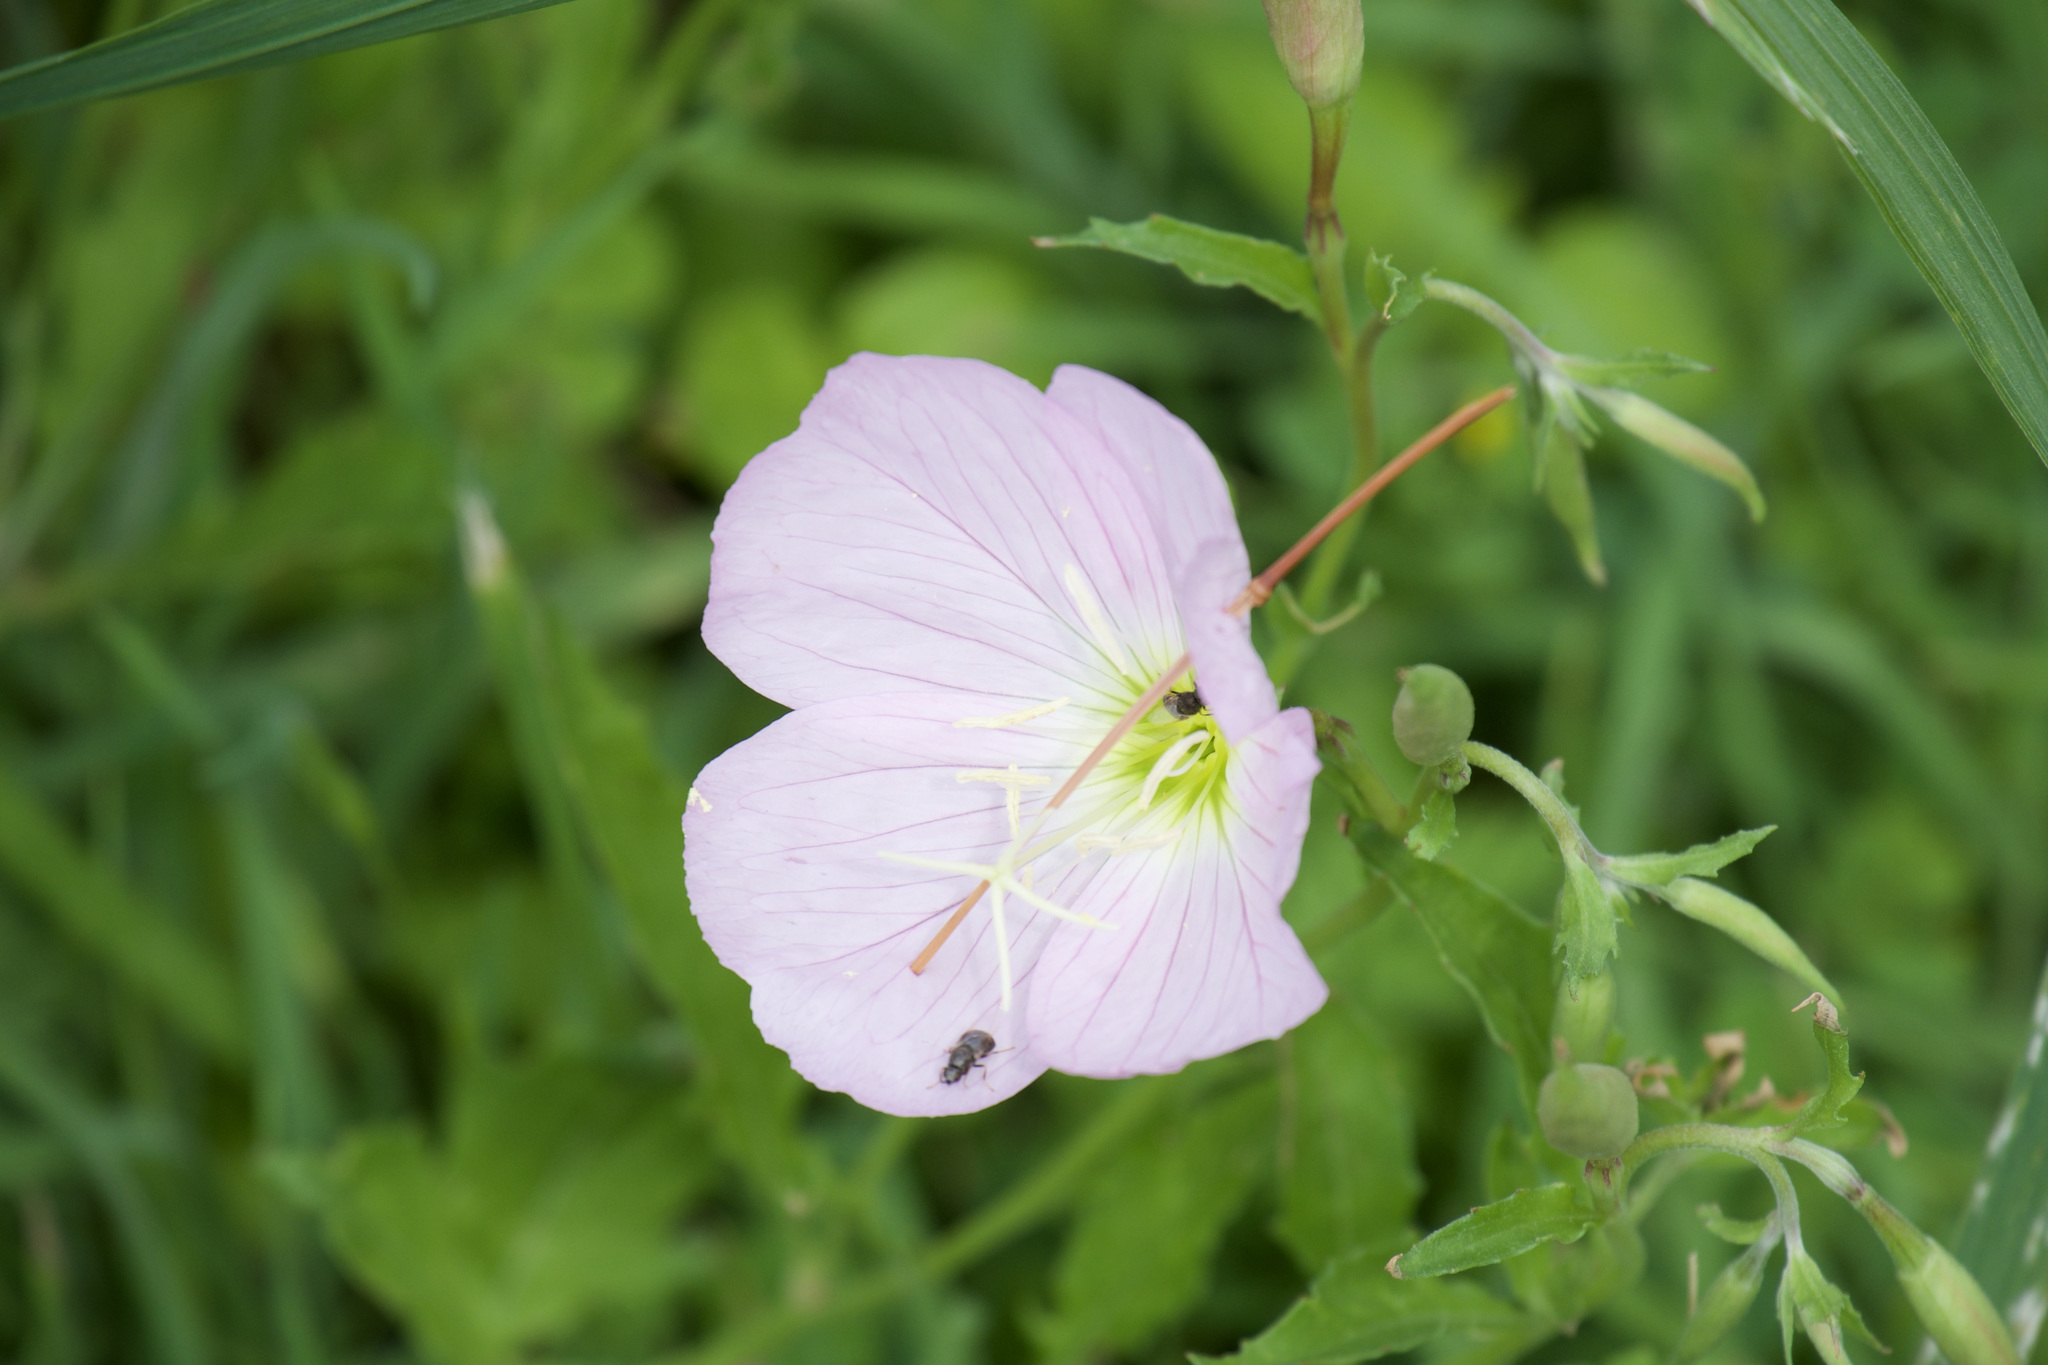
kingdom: Plantae
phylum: Tracheophyta
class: Magnoliopsida
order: Myrtales
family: Onagraceae
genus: Oenothera
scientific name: Oenothera speciosa
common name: White evening-primrose
